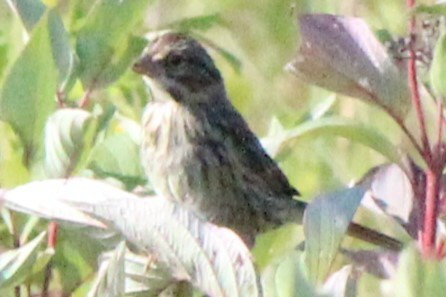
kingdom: Animalia
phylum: Chordata
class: Aves
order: Passeriformes
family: Passerellidae
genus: Melospiza
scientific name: Melospiza melodia
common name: Song sparrow
